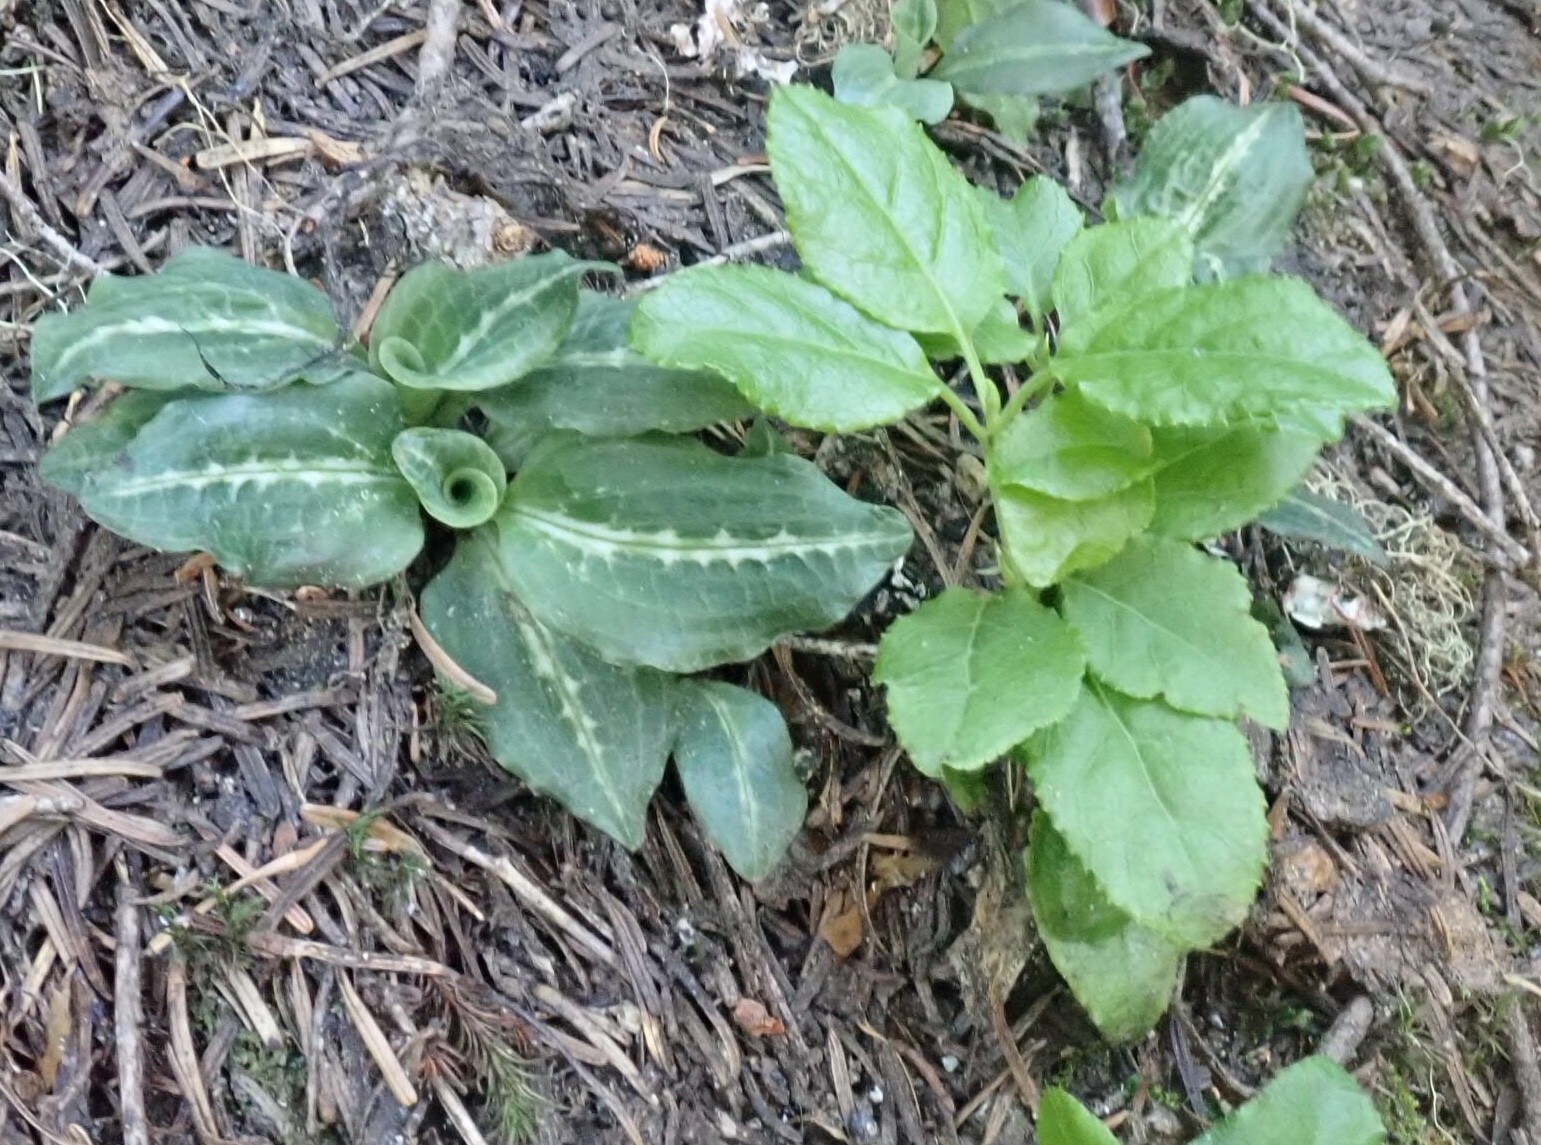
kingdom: Plantae
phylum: Tracheophyta
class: Liliopsida
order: Asparagales
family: Orchidaceae
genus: Goodyera
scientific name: Goodyera oblongifolia
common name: Giant rattlesnake-plantain
